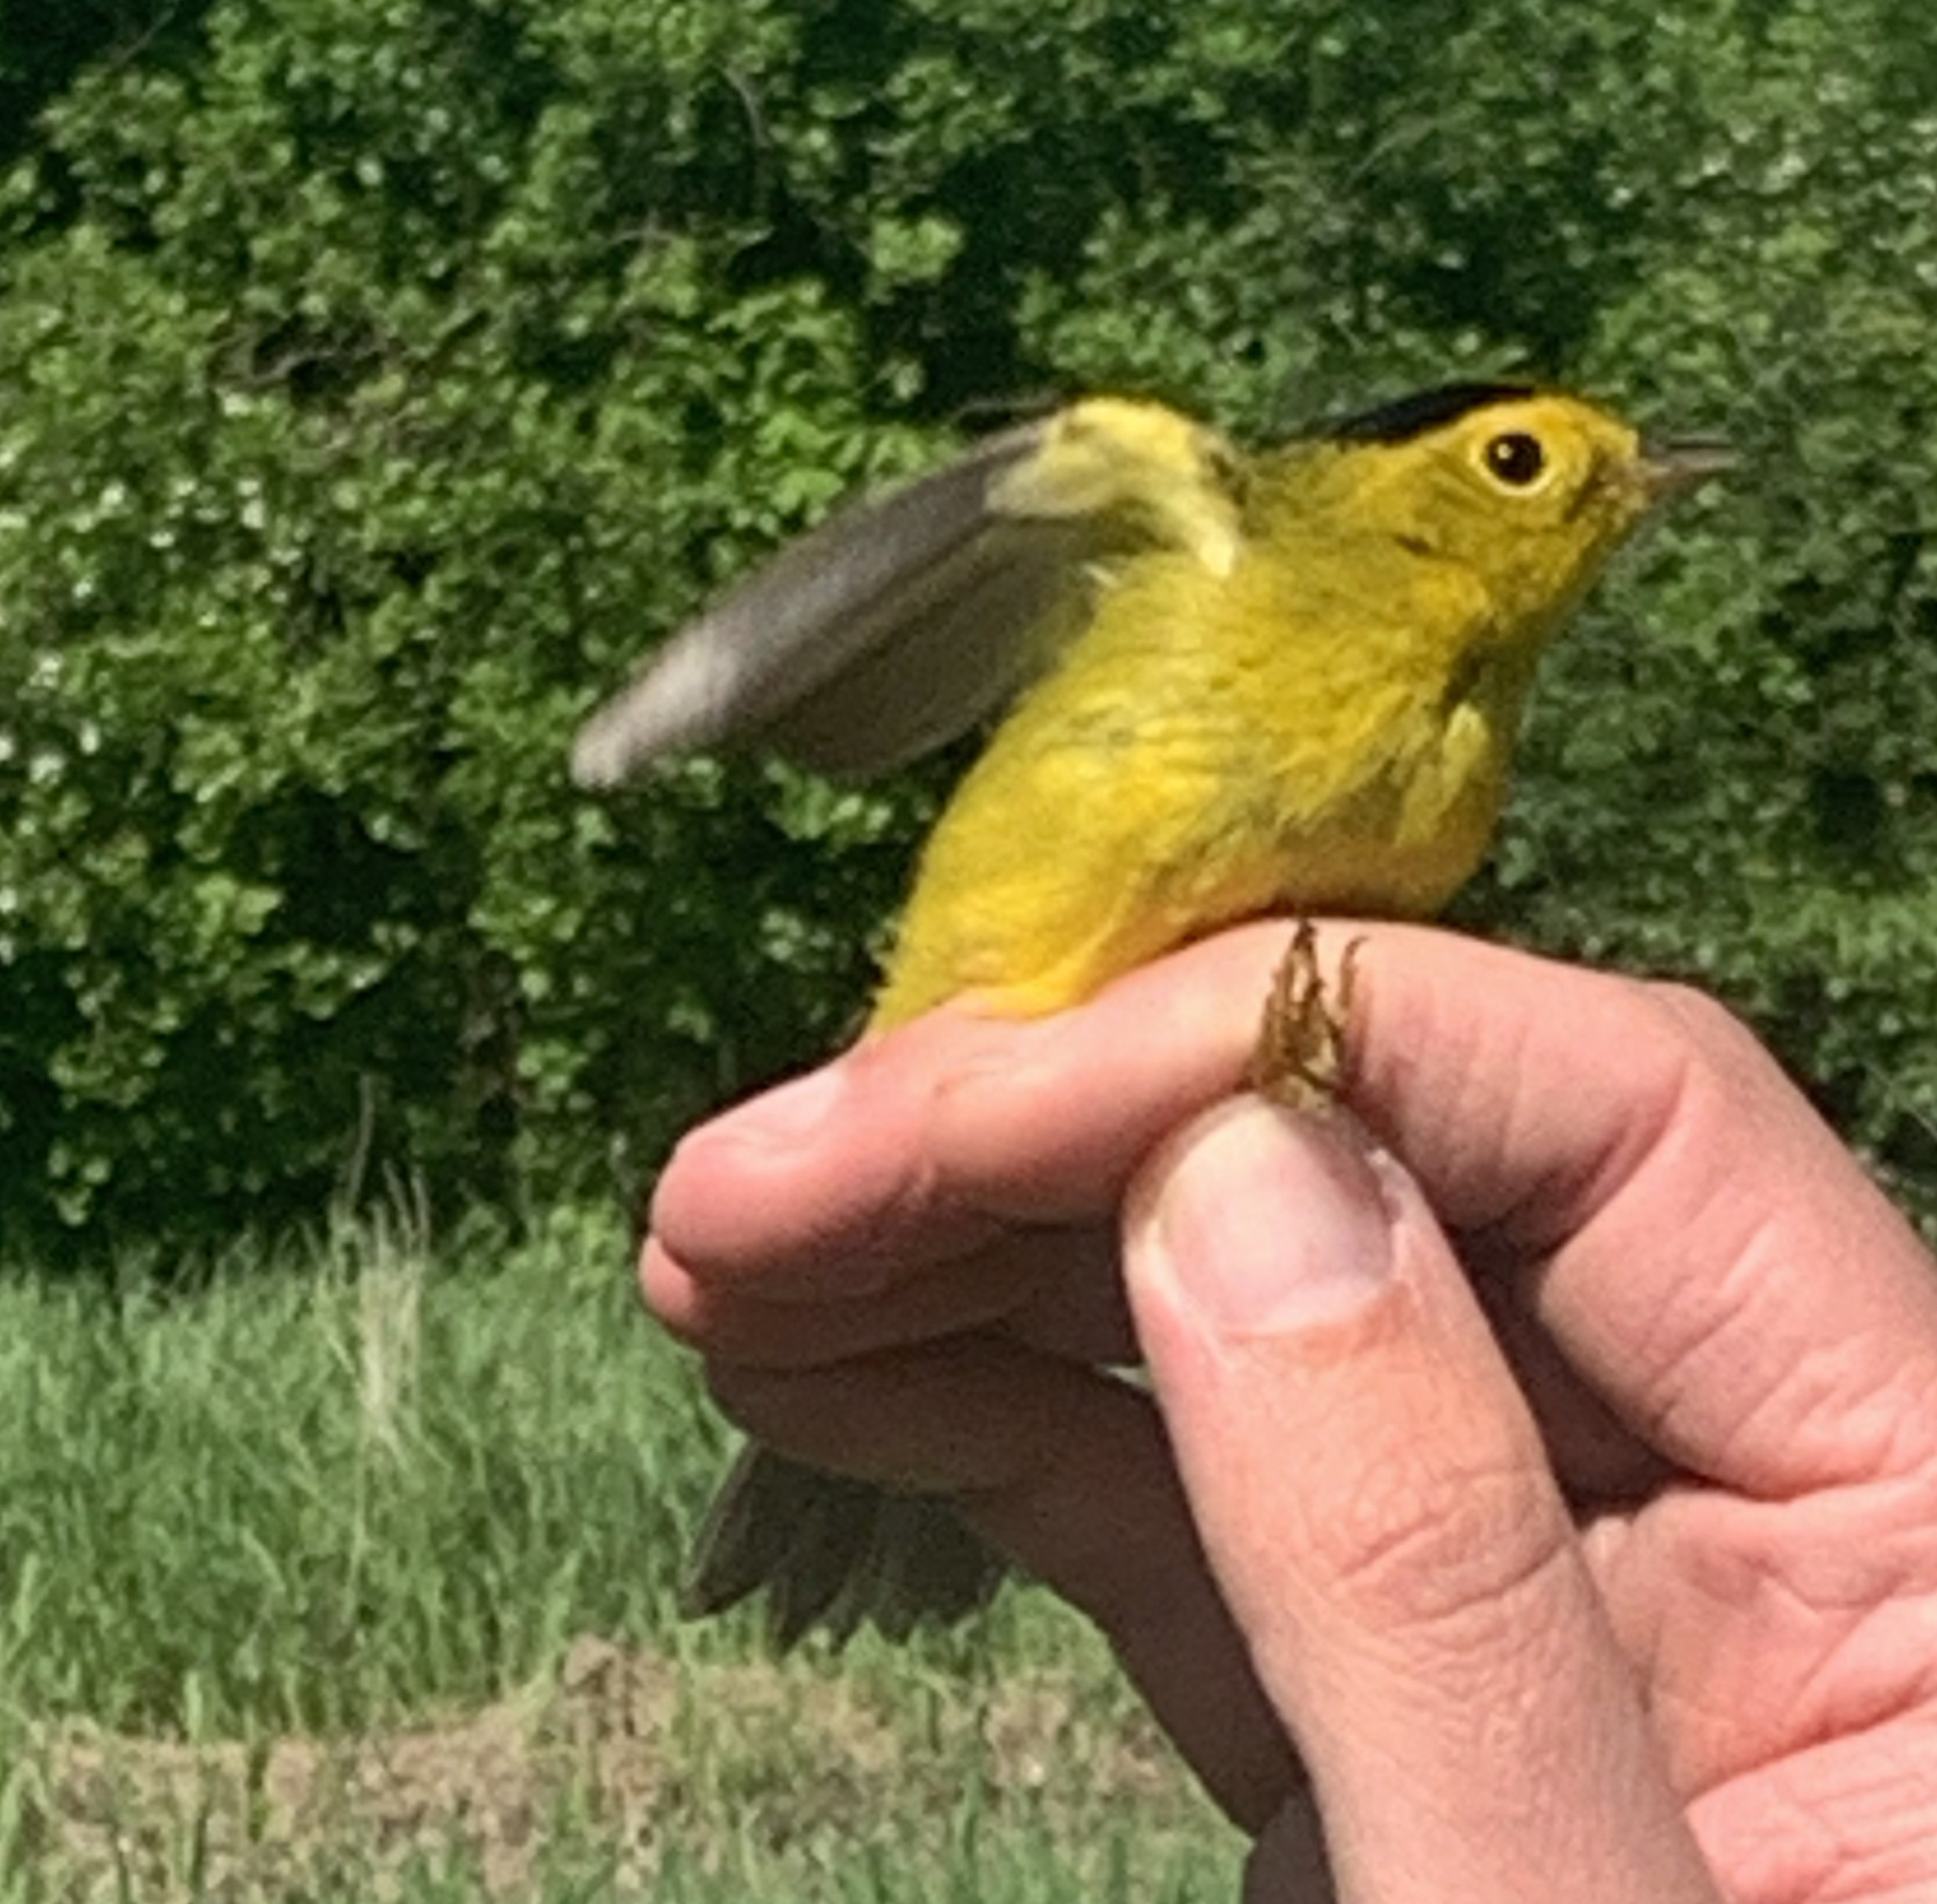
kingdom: Animalia
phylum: Chordata
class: Aves
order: Passeriformes
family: Parulidae
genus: Cardellina
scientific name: Cardellina pusilla
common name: Wilson's warbler
